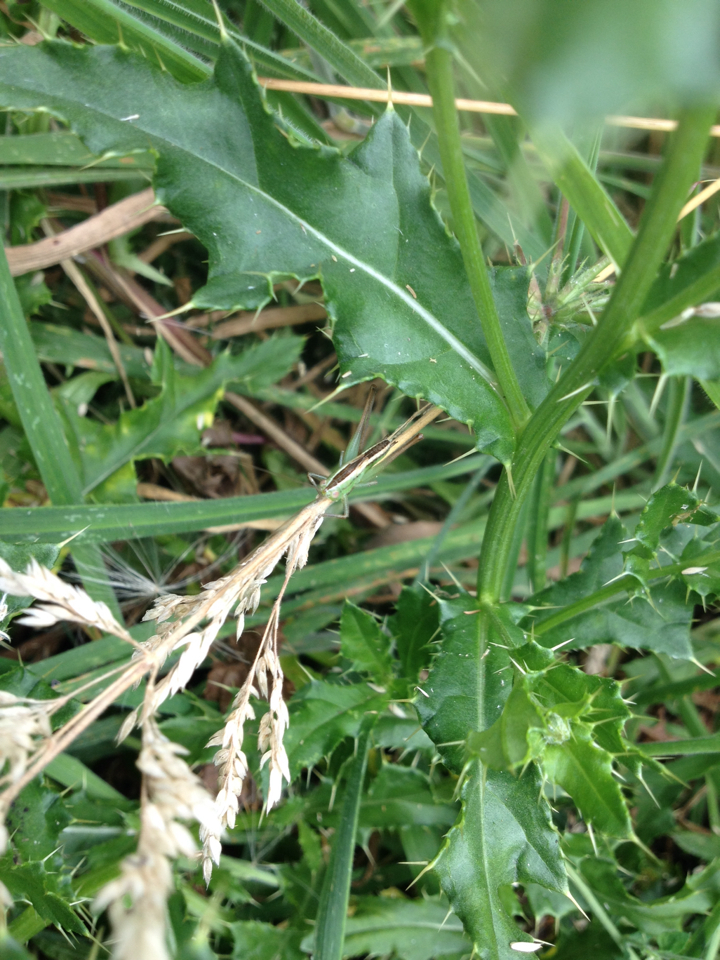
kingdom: Animalia
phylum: Arthropoda
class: Insecta
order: Orthoptera
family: Tettigoniidae
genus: Conocephalus
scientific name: Conocephalus bilineatus
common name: Small meadow katydid
